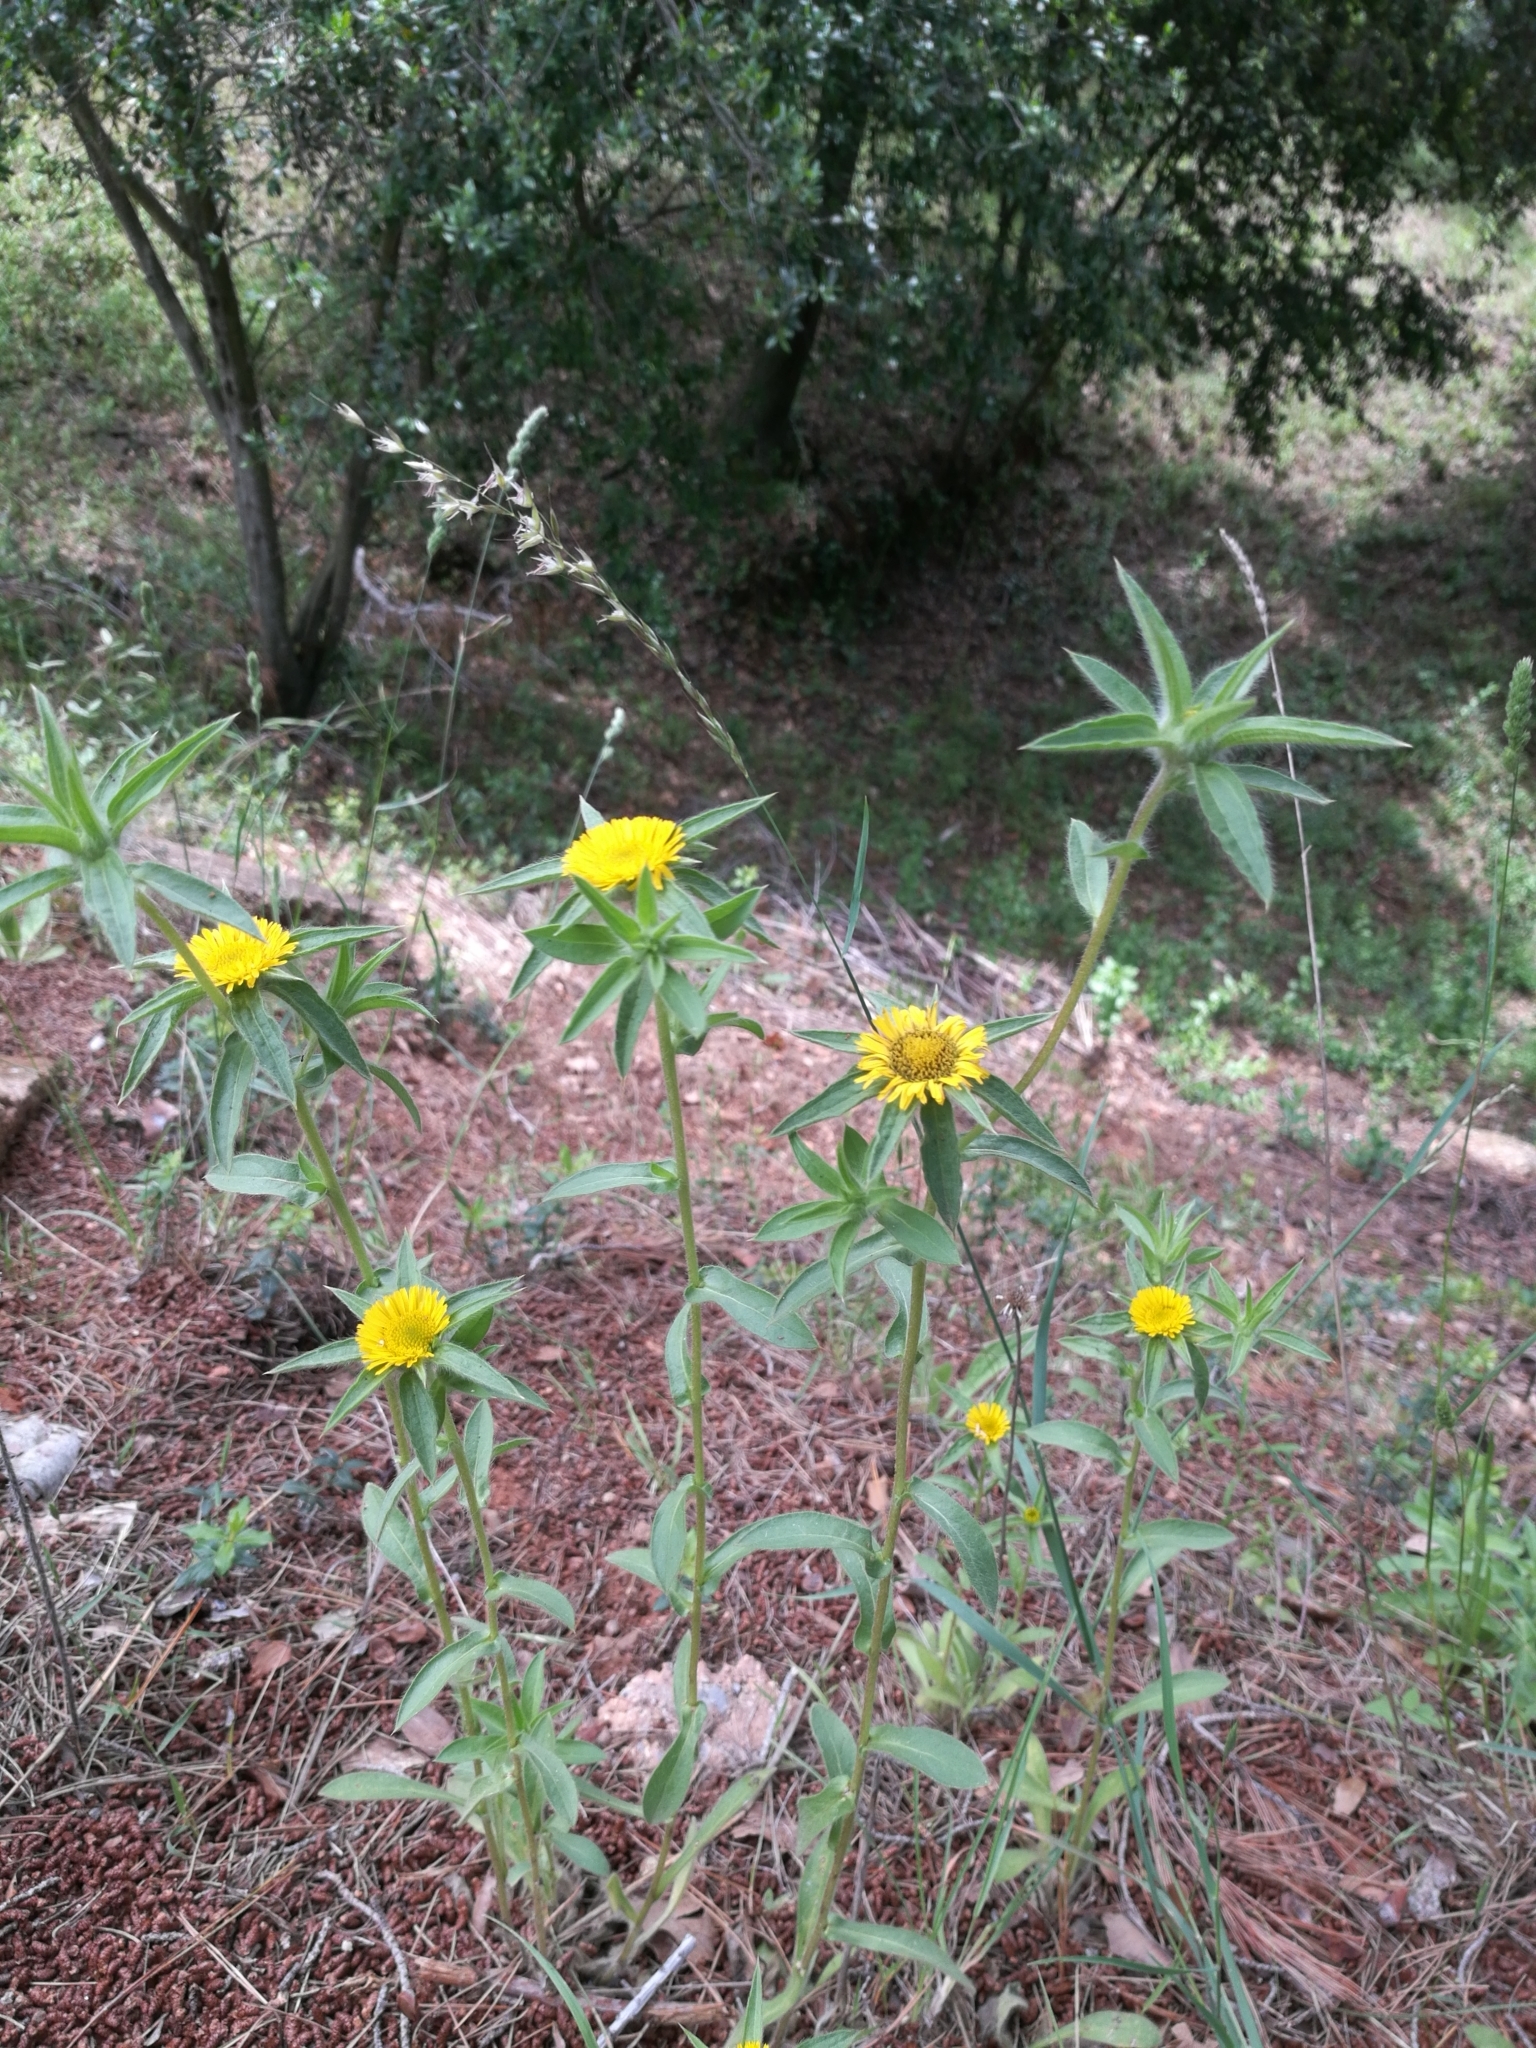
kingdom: Plantae
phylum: Tracheophyta
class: Magnoliopsida
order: Asterales
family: Asteraceae
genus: Pallenis
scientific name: Pallenis spinosa
